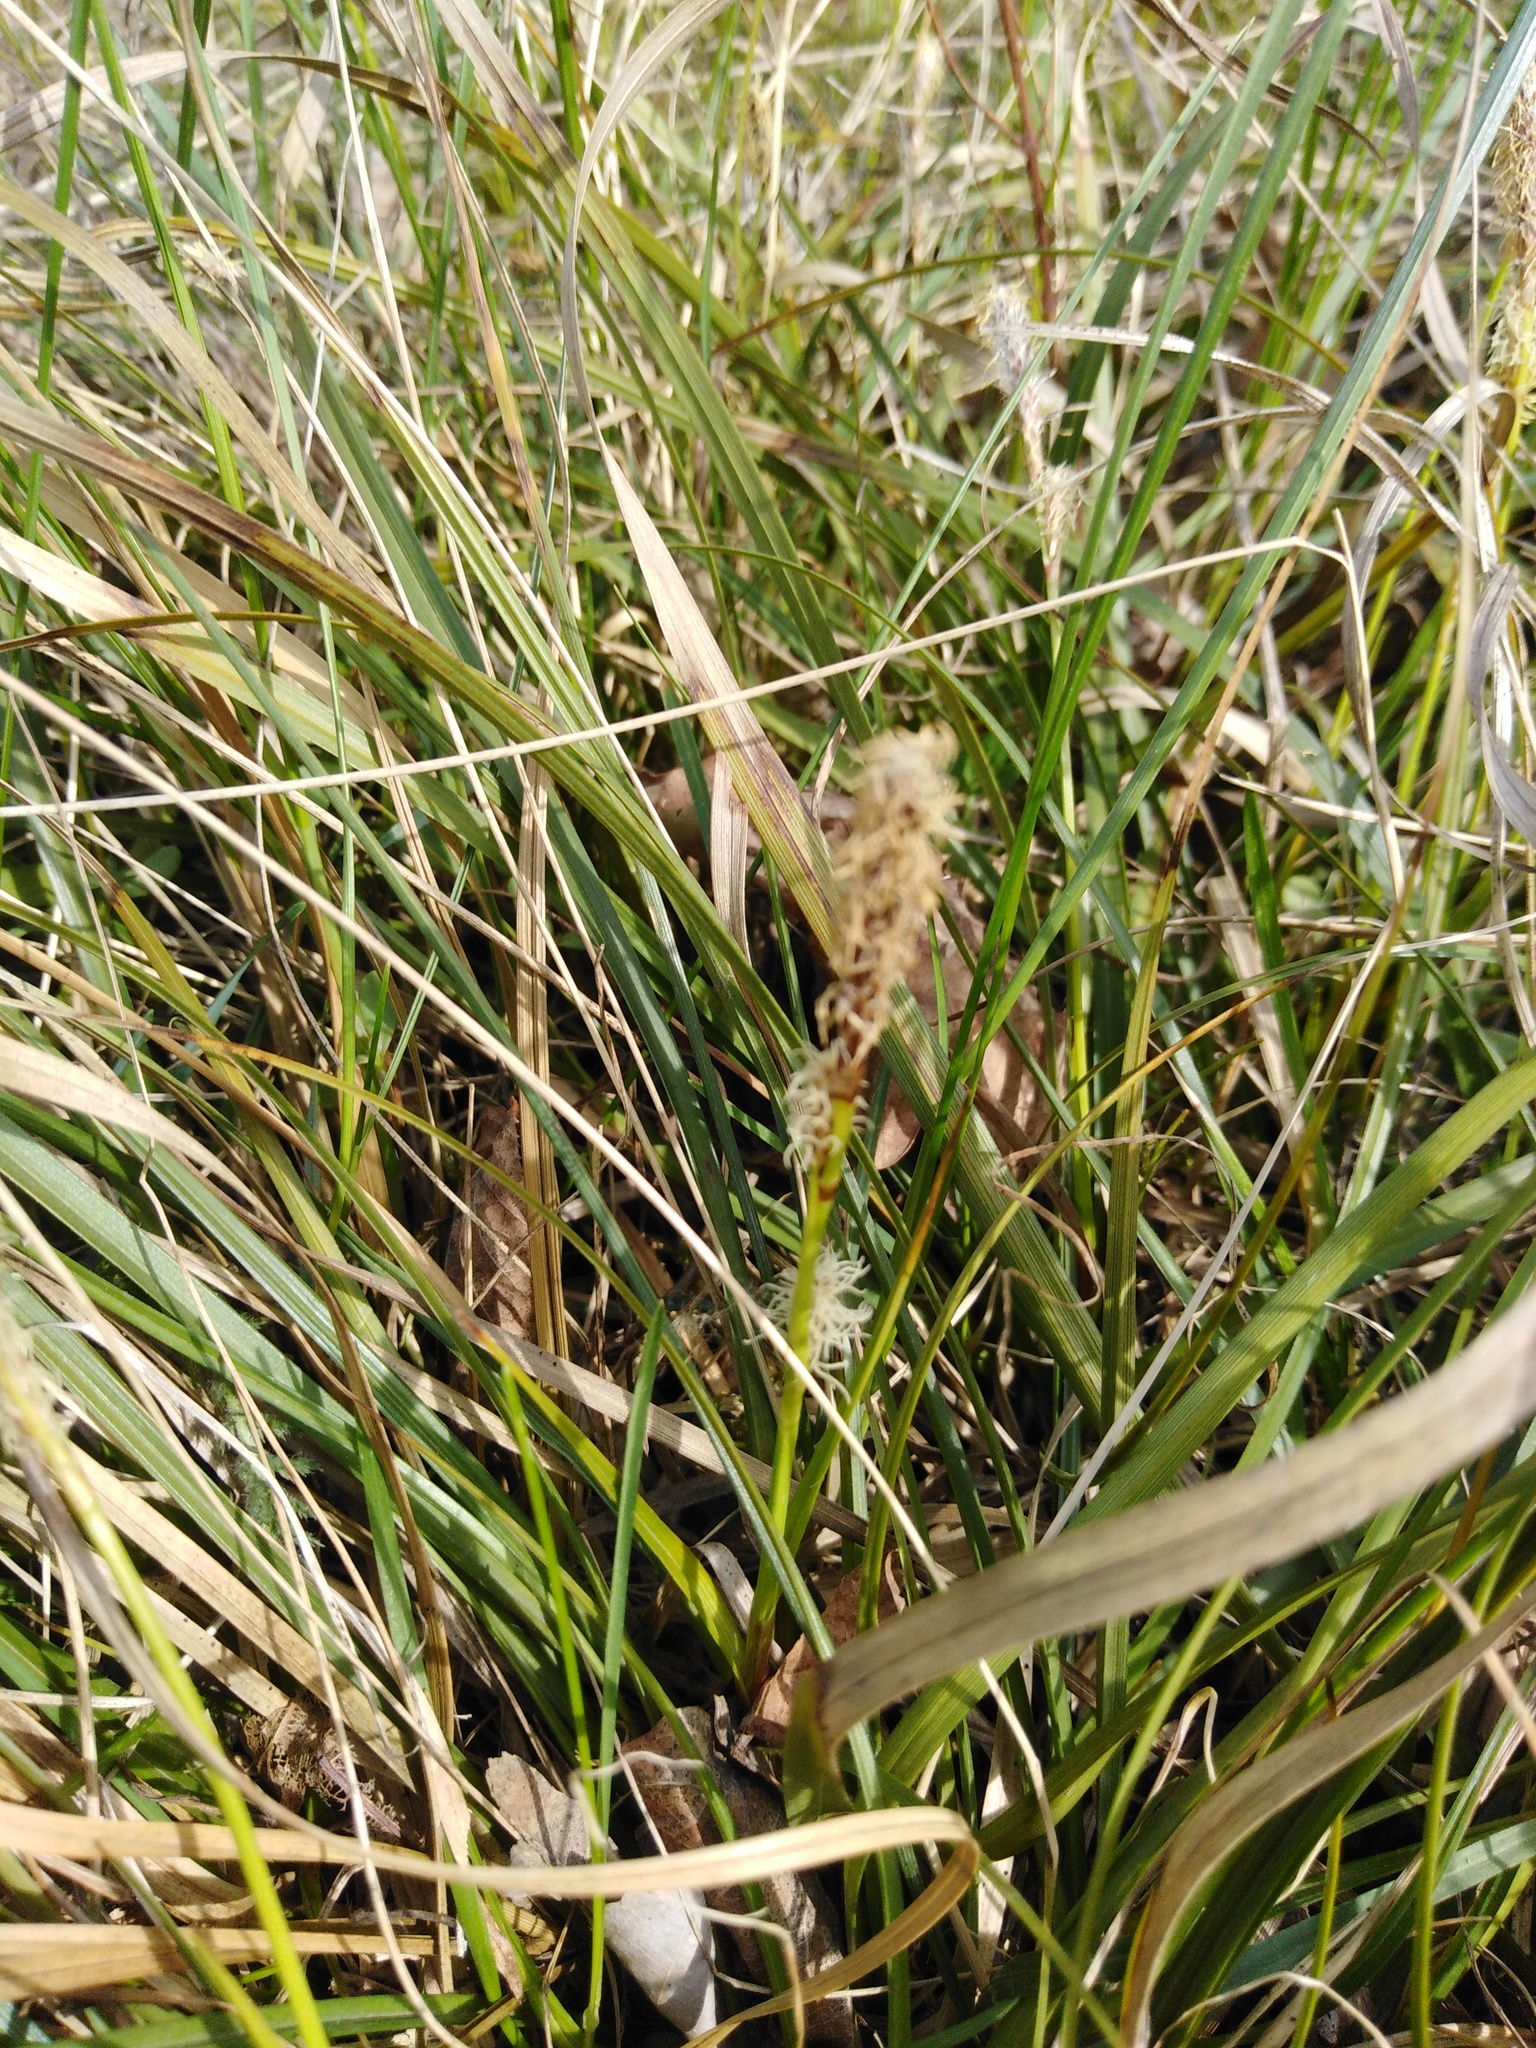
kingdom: Plantae
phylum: Tracheophyta
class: Liliopsida
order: Poales
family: Cyperaceae
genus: Carex
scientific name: Carex ericetorum
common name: Rare spring-sedge
